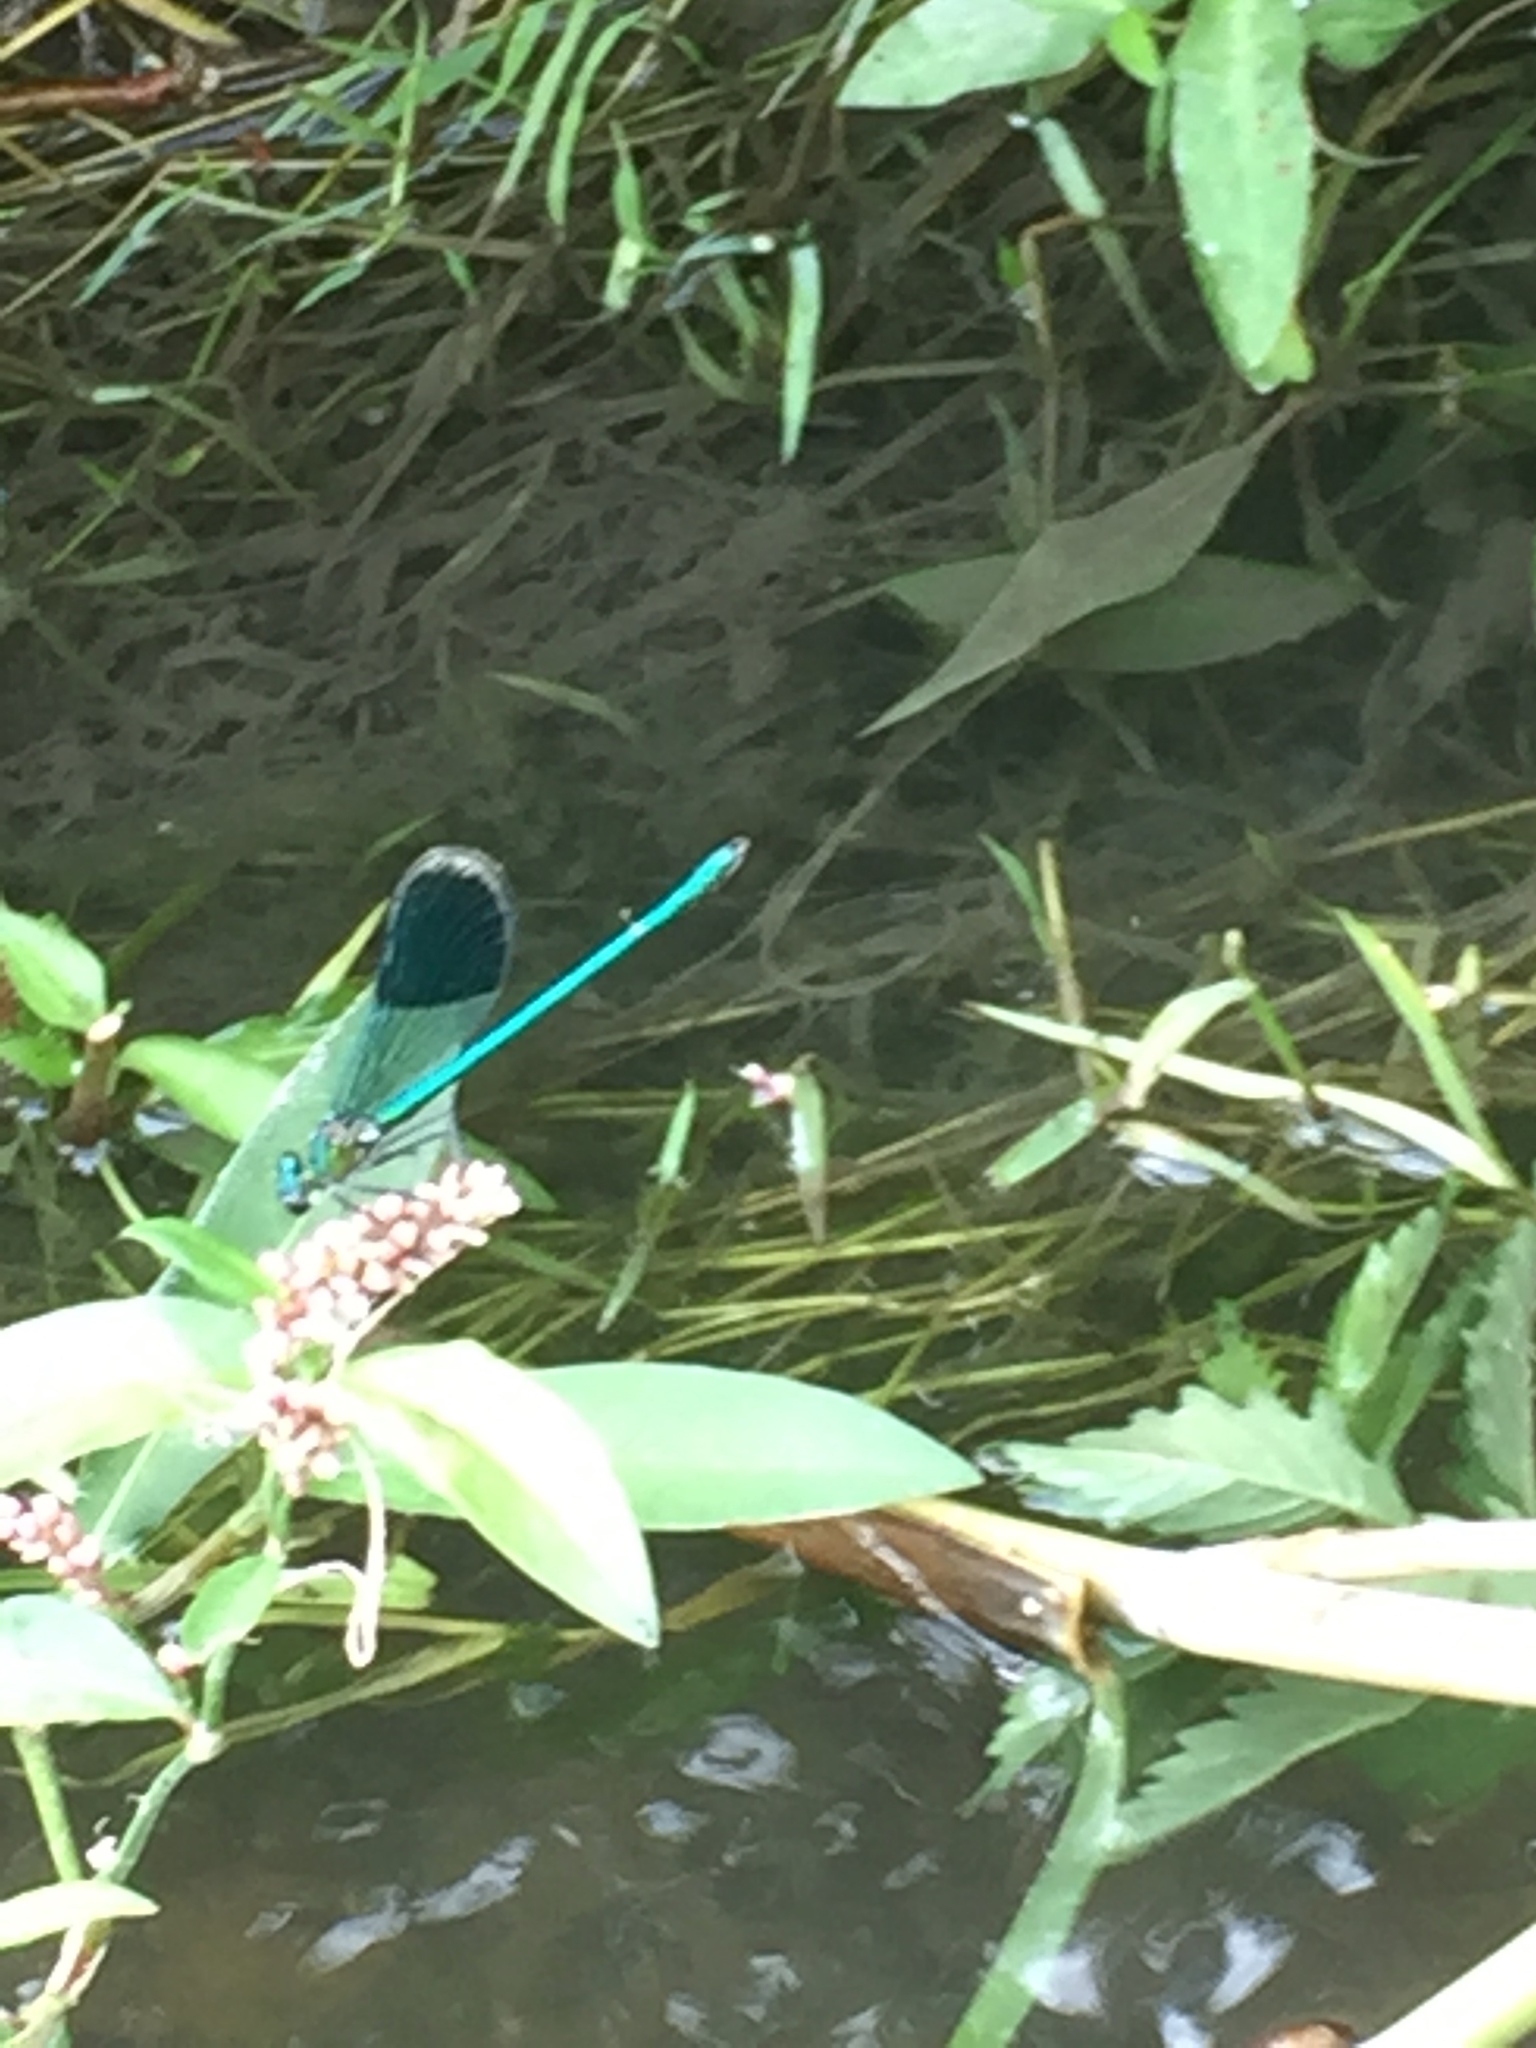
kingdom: Animalia
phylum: Arthropoda
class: Insecta
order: Odonata
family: Calopterygidae
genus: Calopteryx
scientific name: Calopteryx splendens
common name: Banded demoiselle
